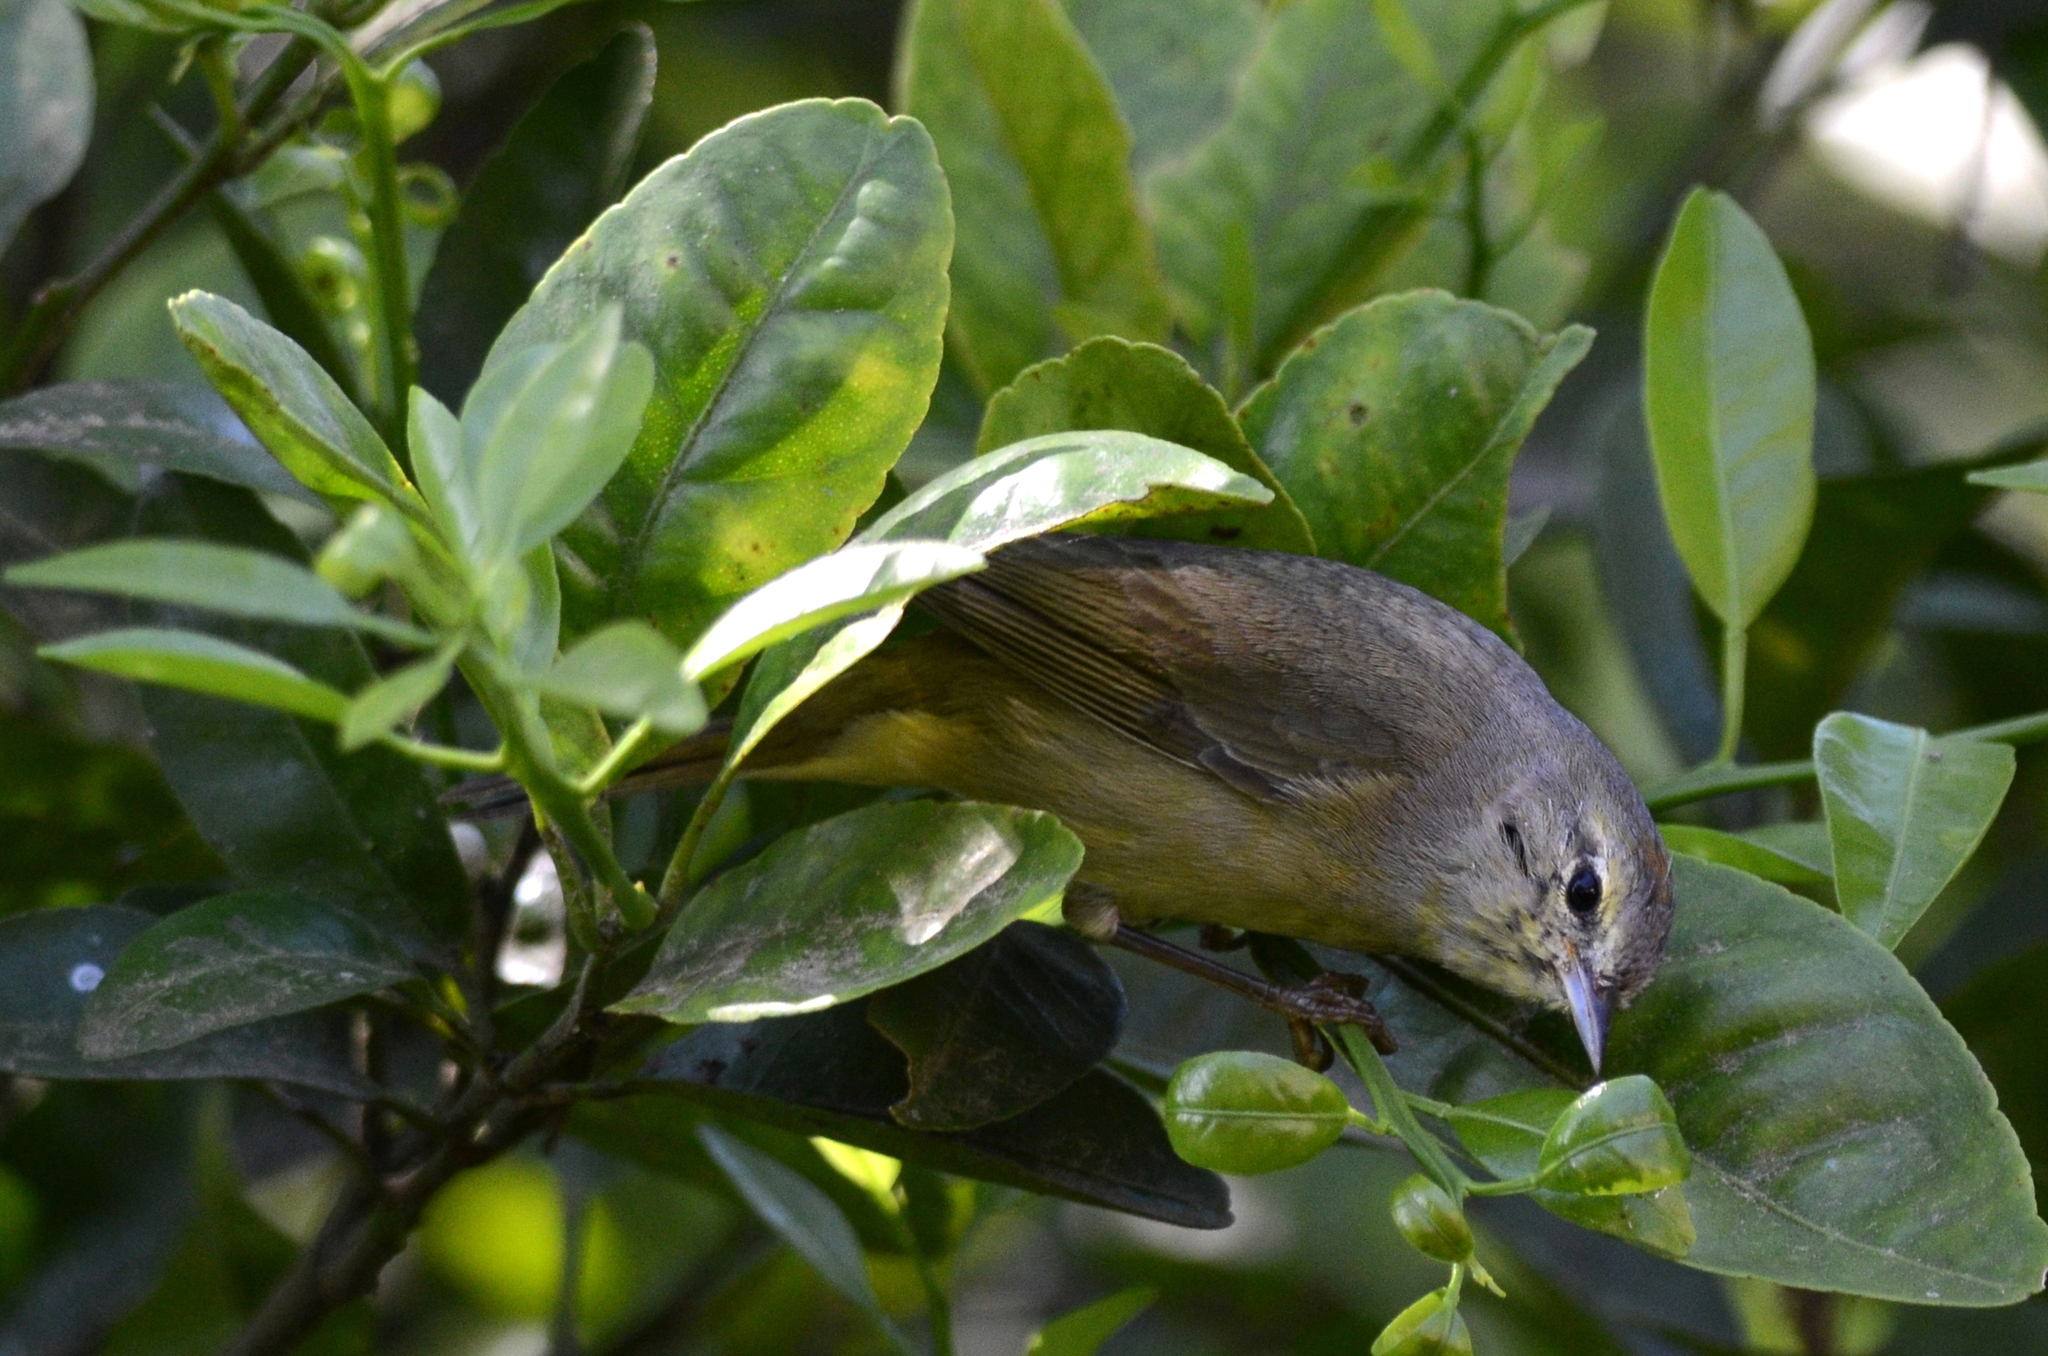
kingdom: Animalia
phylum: Chordata
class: Aves
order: Passeriformes
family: Parulidae
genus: Leiothlypis
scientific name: Leiothlypis celata
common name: Orange-crowned warbler
